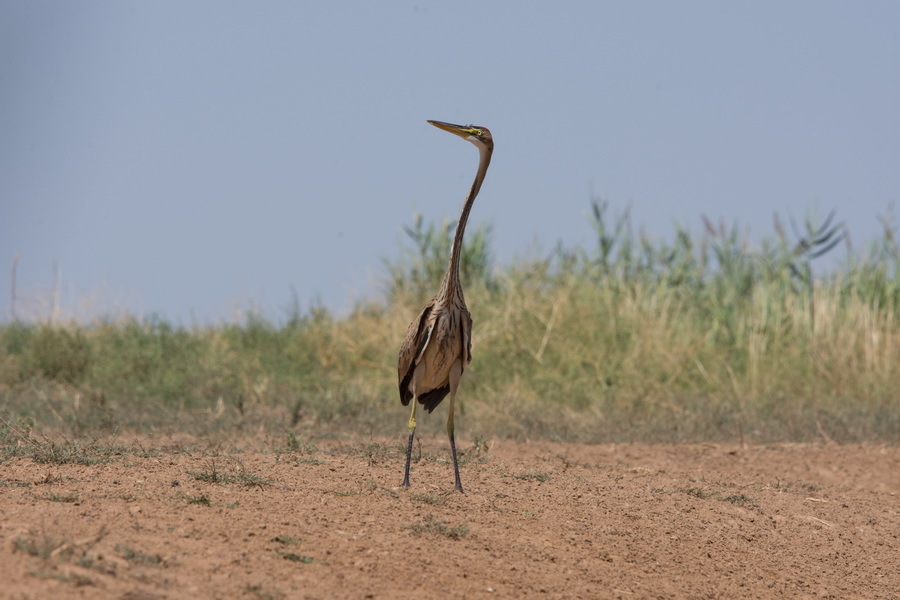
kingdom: Animalia
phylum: Chordata
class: Aves
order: Pelecaniformes
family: Ardeidae
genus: Ardea
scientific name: Ardea purpurea
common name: Purple heron
